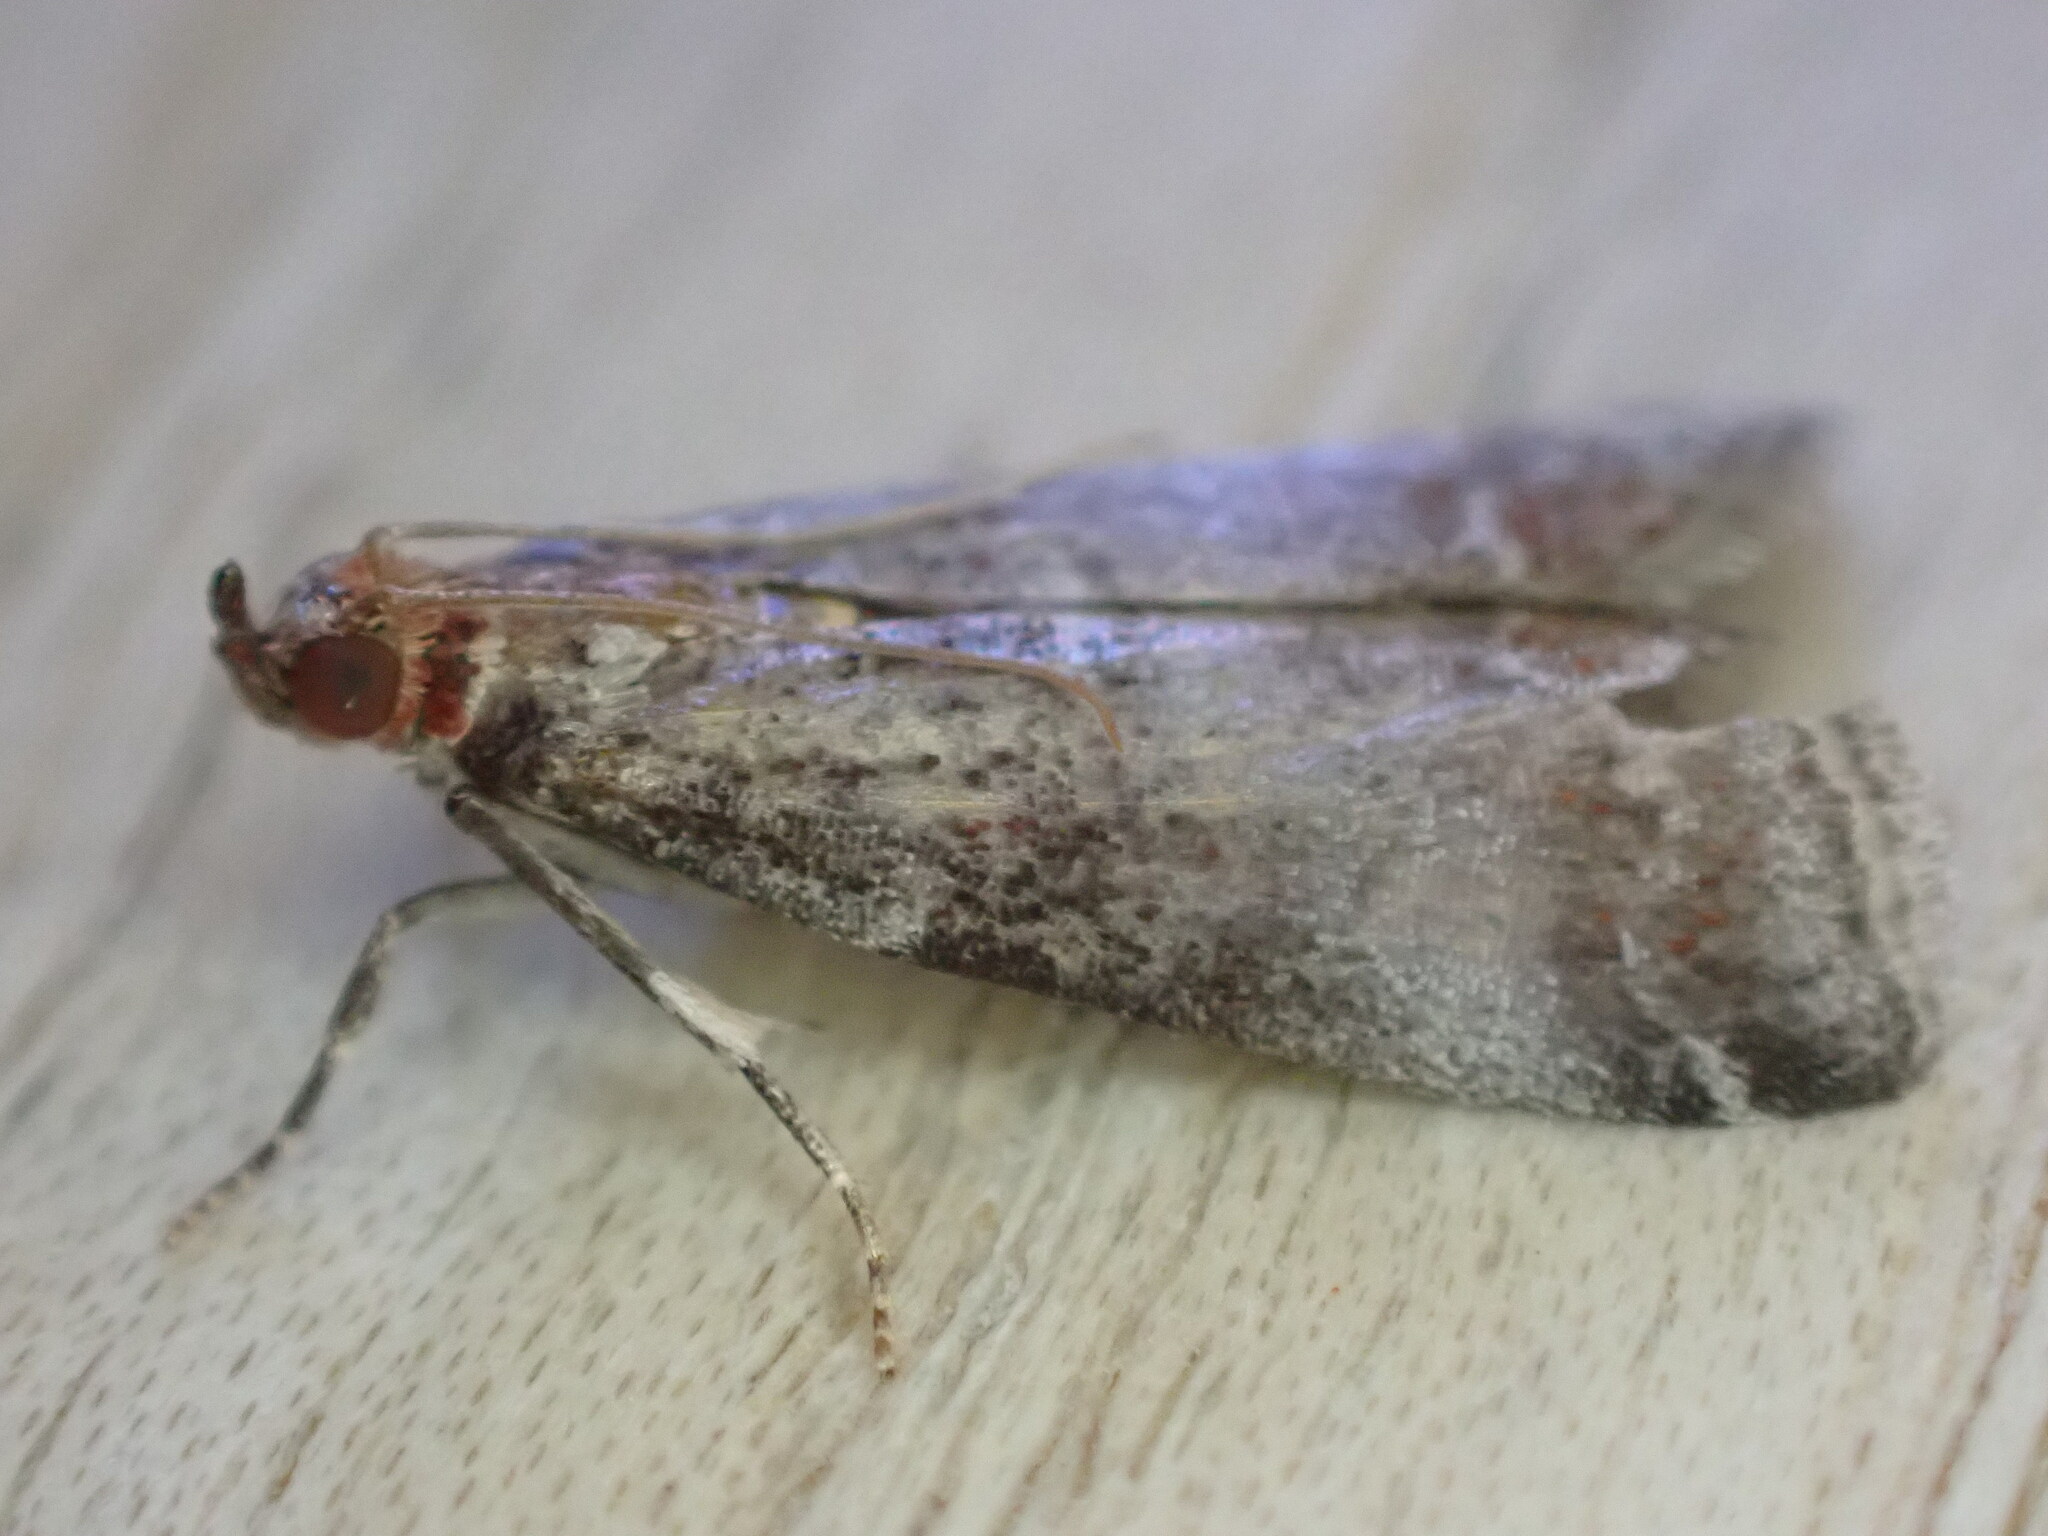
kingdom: Animalia
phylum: Arthropoda
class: Insecta
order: Lepidoptera
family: Pyralidae
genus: Acrobasis
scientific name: Acrobasis advenella
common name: Grey knot-horn
